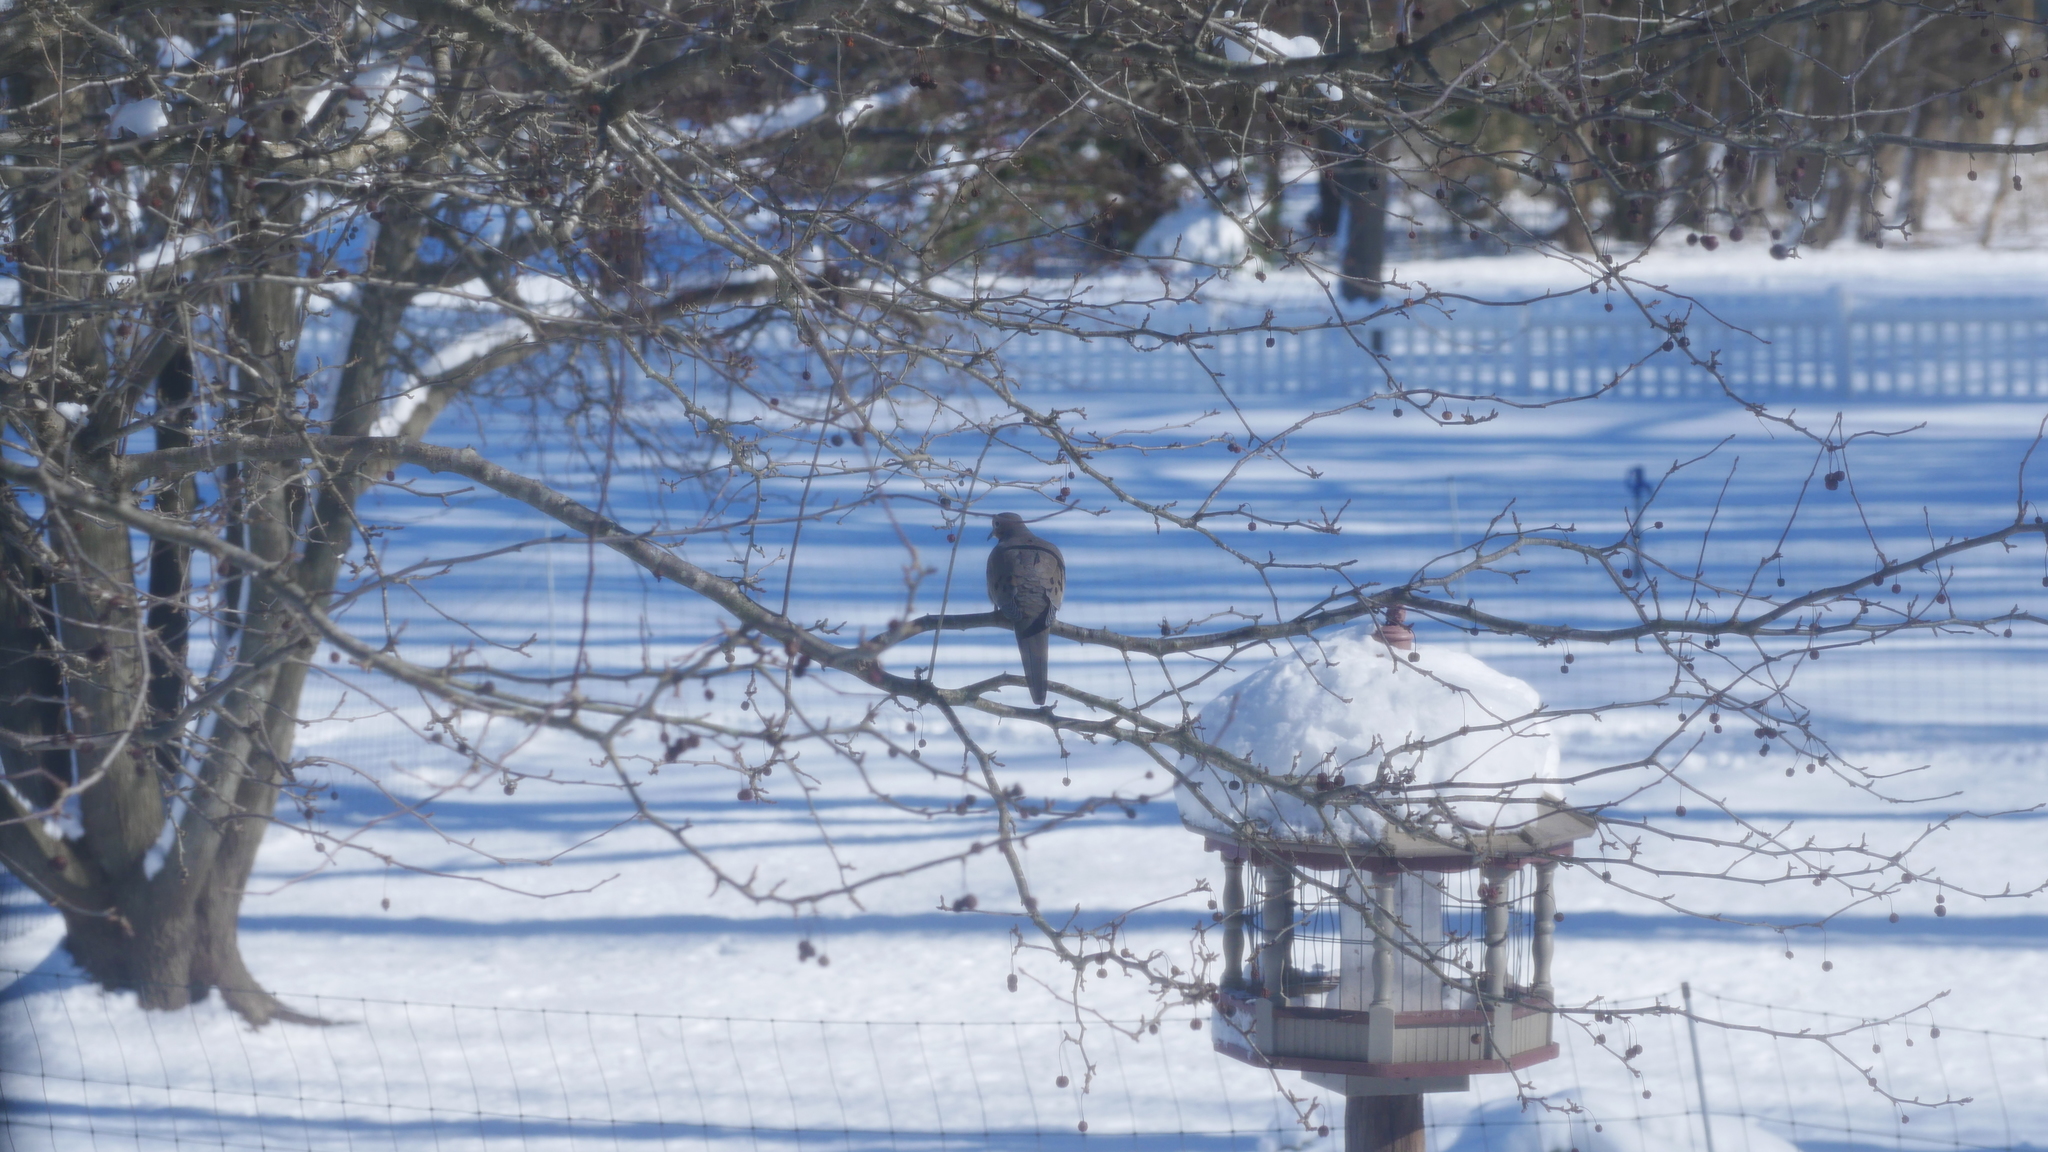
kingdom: Animalia
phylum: Chordata
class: Aves
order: Columbiformes
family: Columbidae
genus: Zenaida
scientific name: Zenaida macroura
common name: Mourning dove
